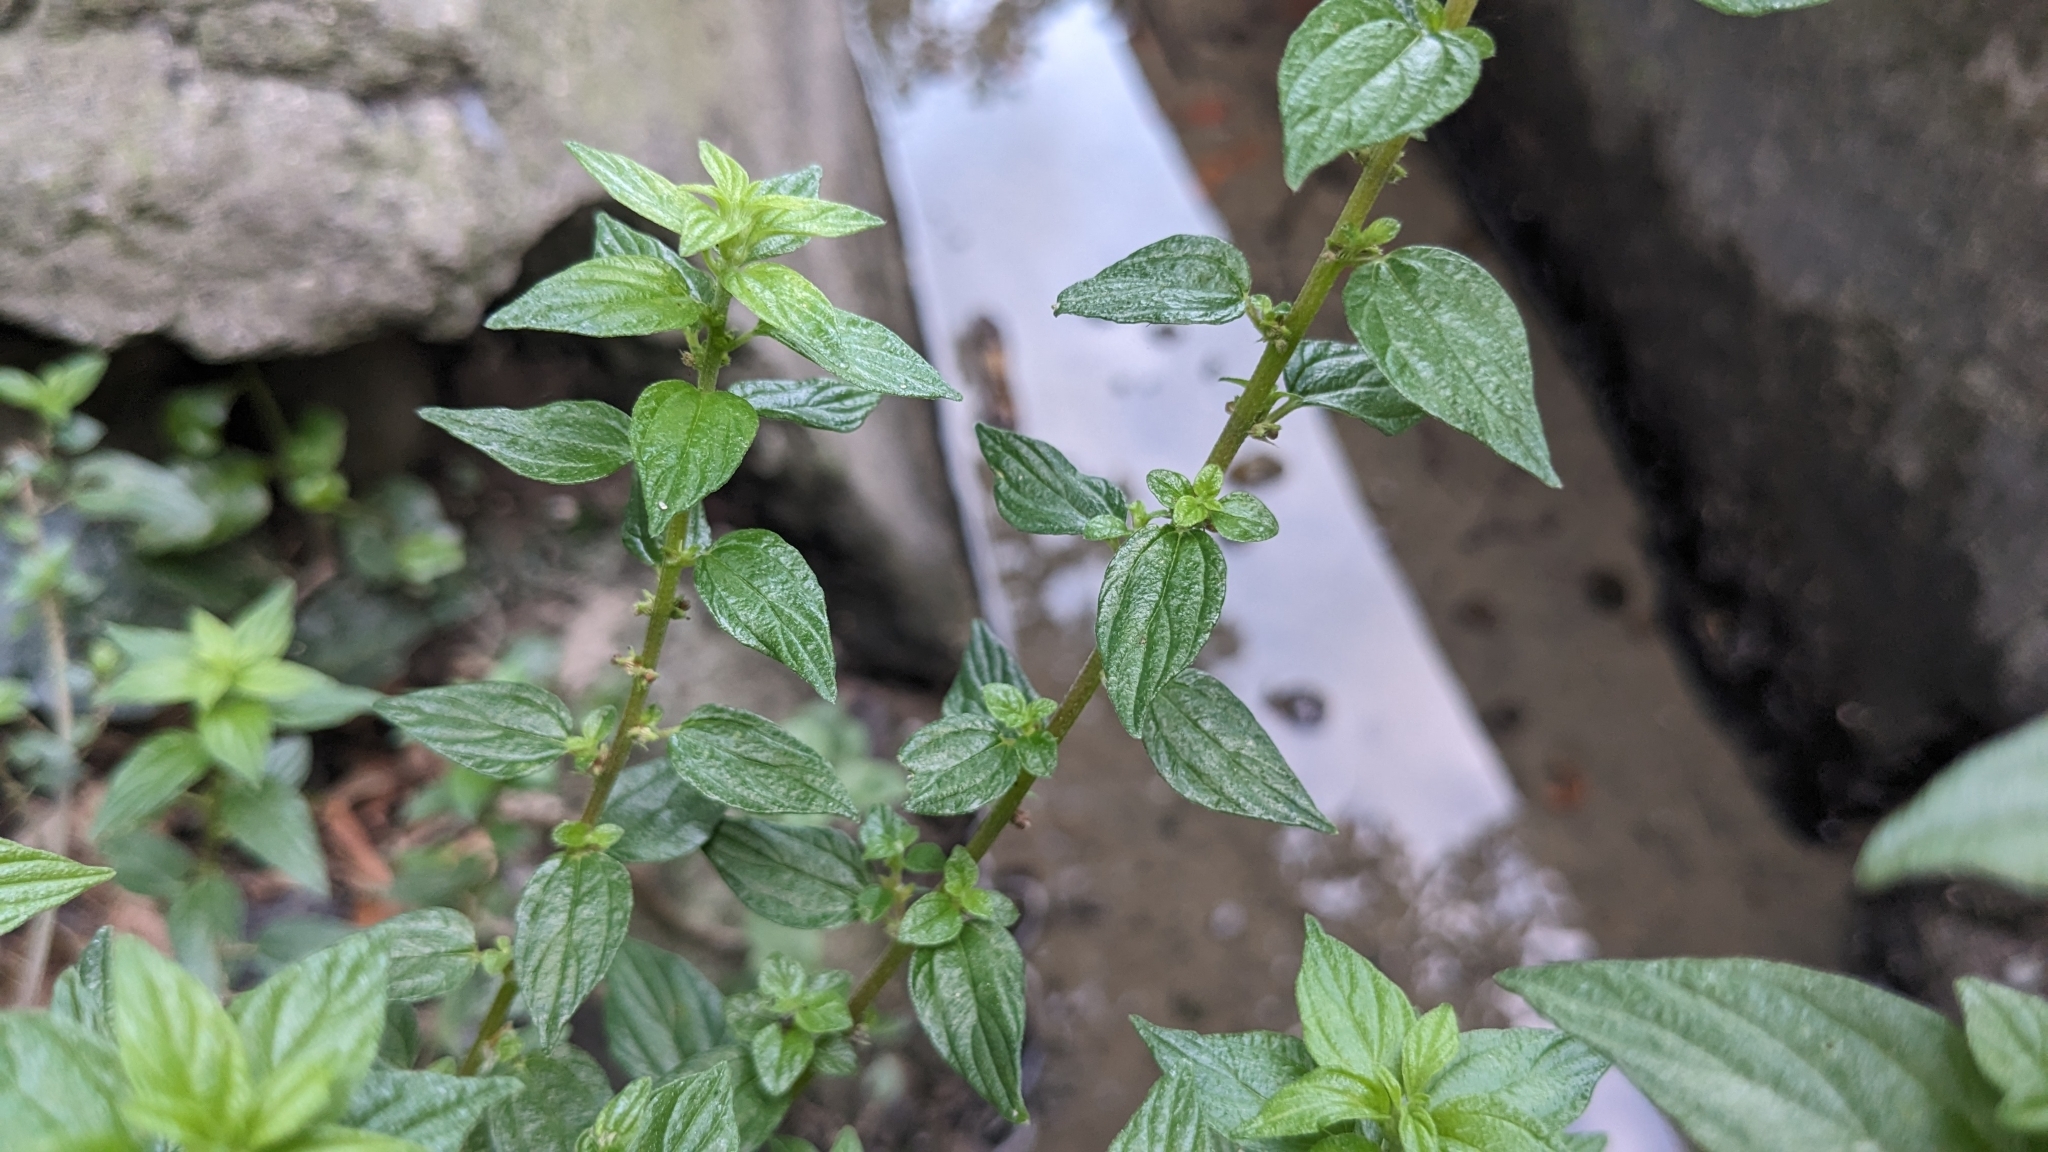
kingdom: Plantae
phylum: Tracheophyta
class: Magnoliopsida
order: Rosales
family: Urticaceae
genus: Pouzolzia
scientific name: Pouzolzia zeylanica
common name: Graceful pouzolzsbush
